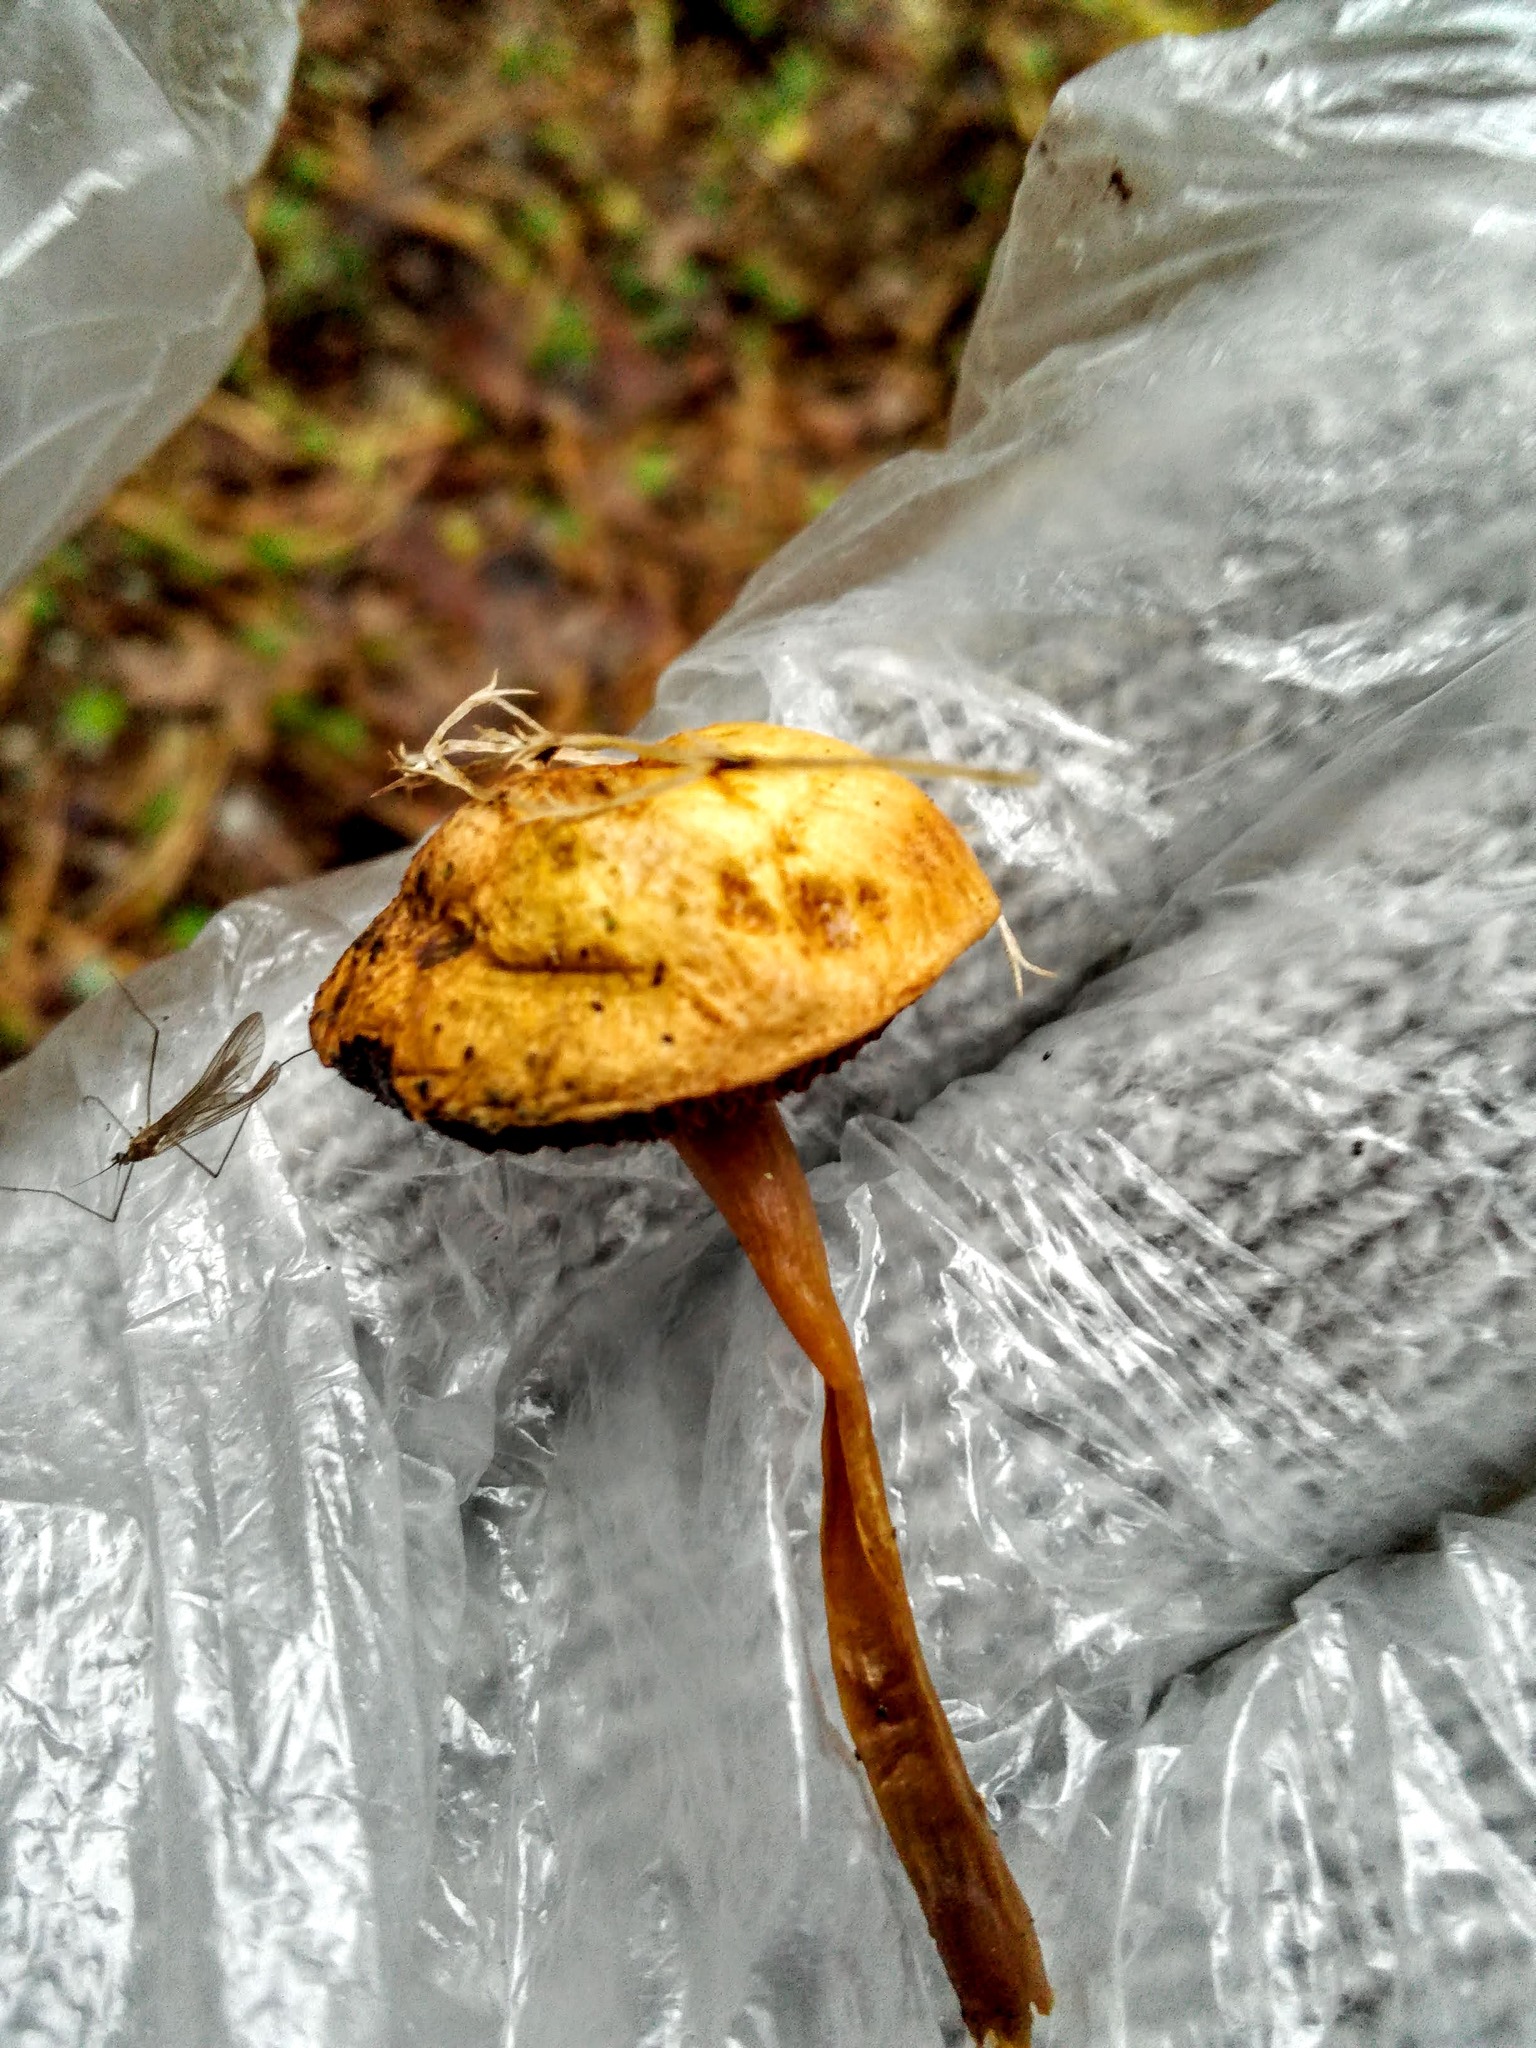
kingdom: Fungi
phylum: Basidiomycota
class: Agaricomycetes
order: Boletales
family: Boletaceae
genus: Chalciporus
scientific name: Chalciporus piperatus
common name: Peppery bolete
